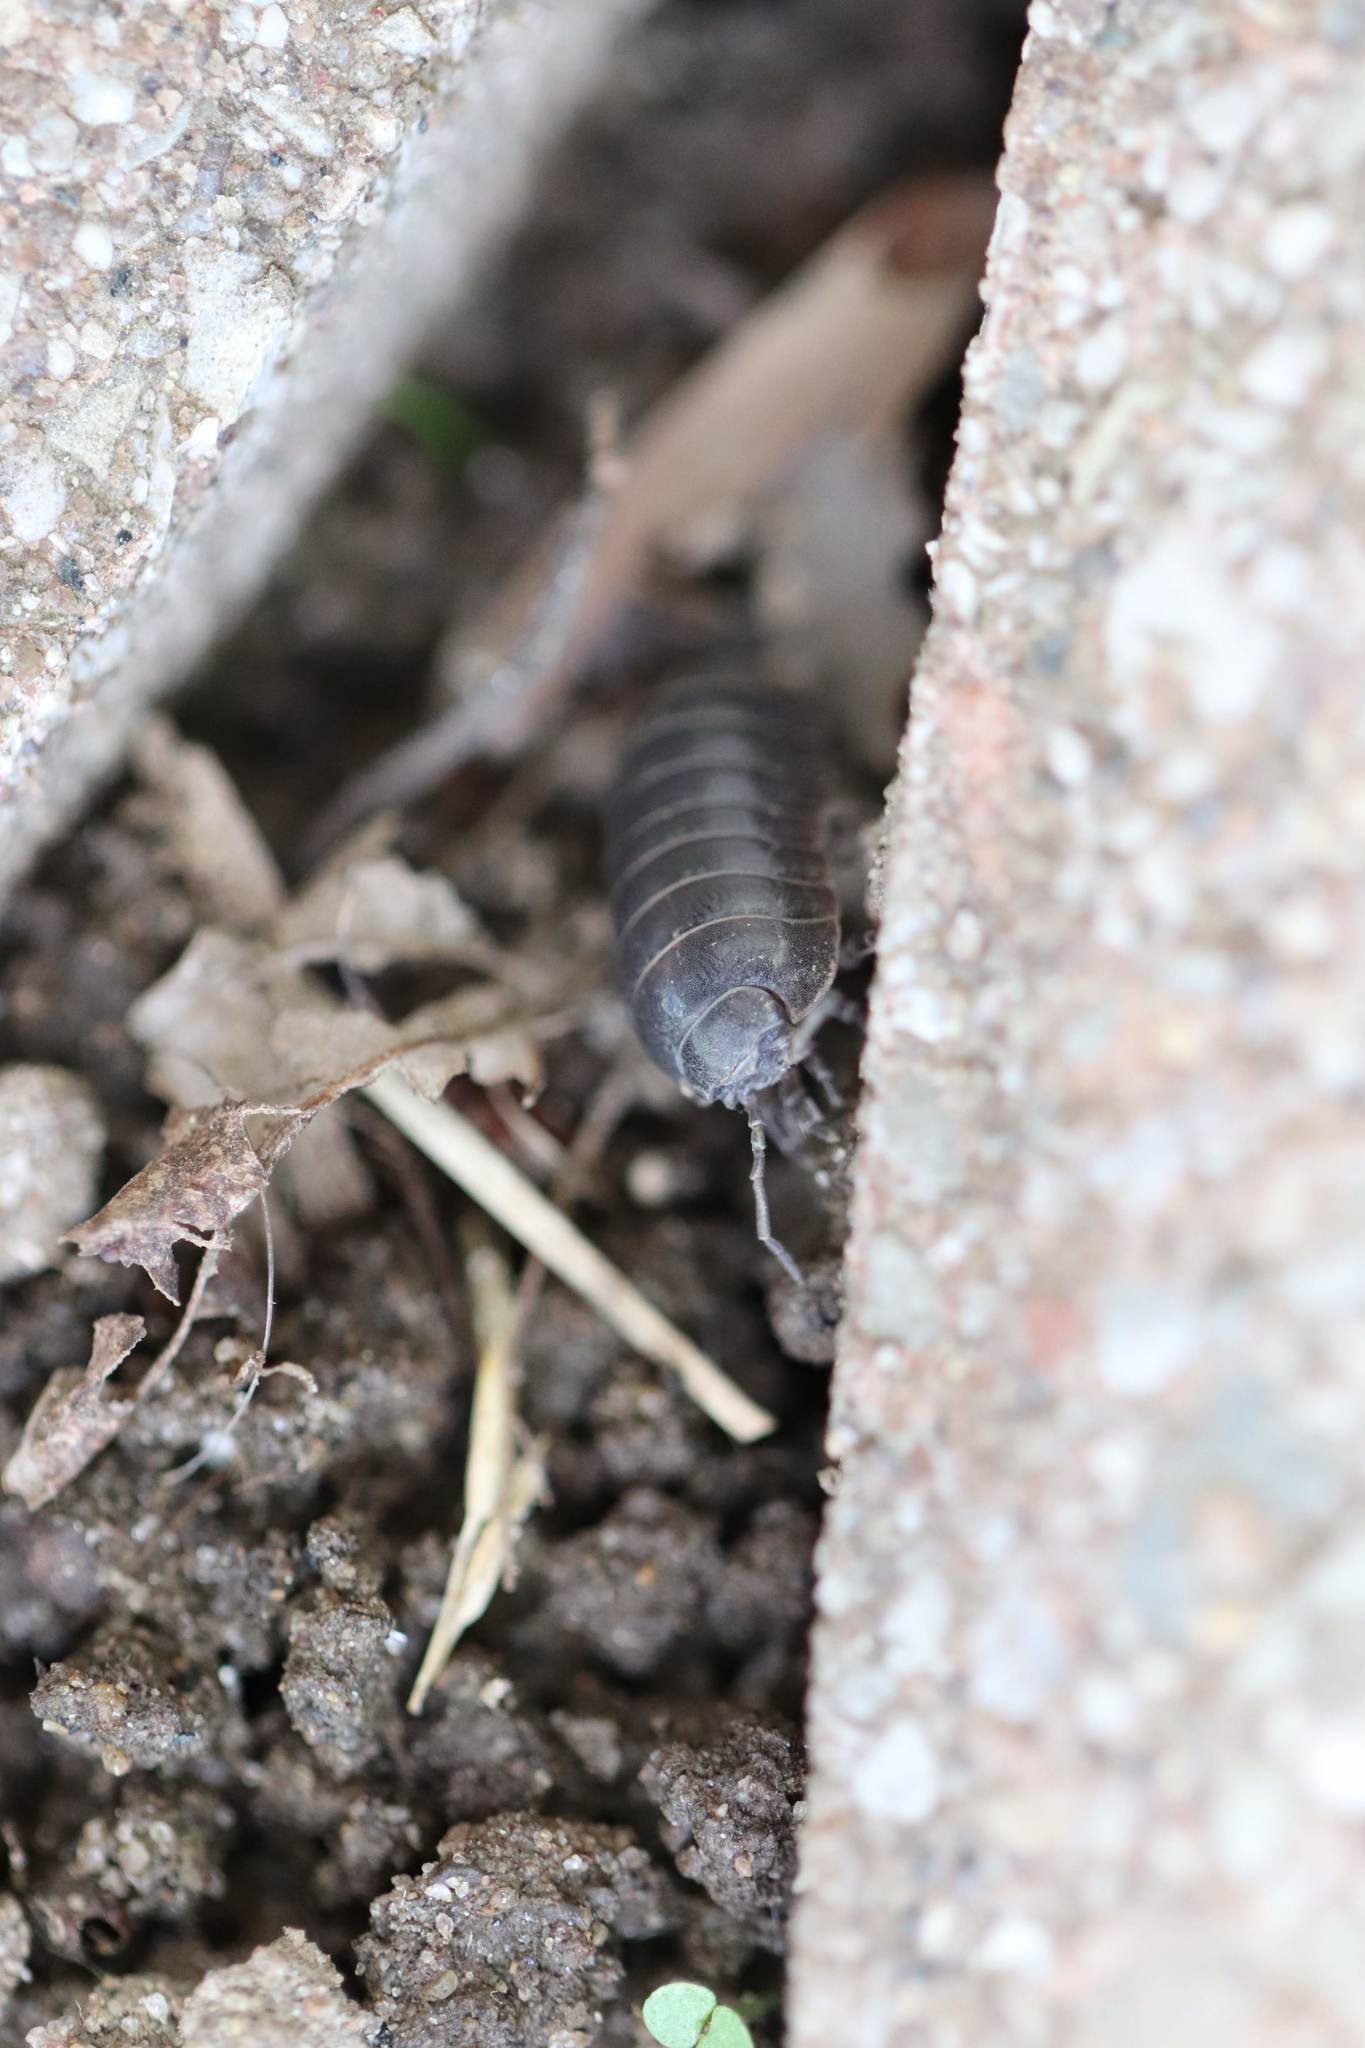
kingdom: Animalia
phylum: Arthropoda
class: Malacostraca
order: Isopoda
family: Armadillidiidae
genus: Armadillidium
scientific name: Armadillidium vulgare
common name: Common pill woodlouse
